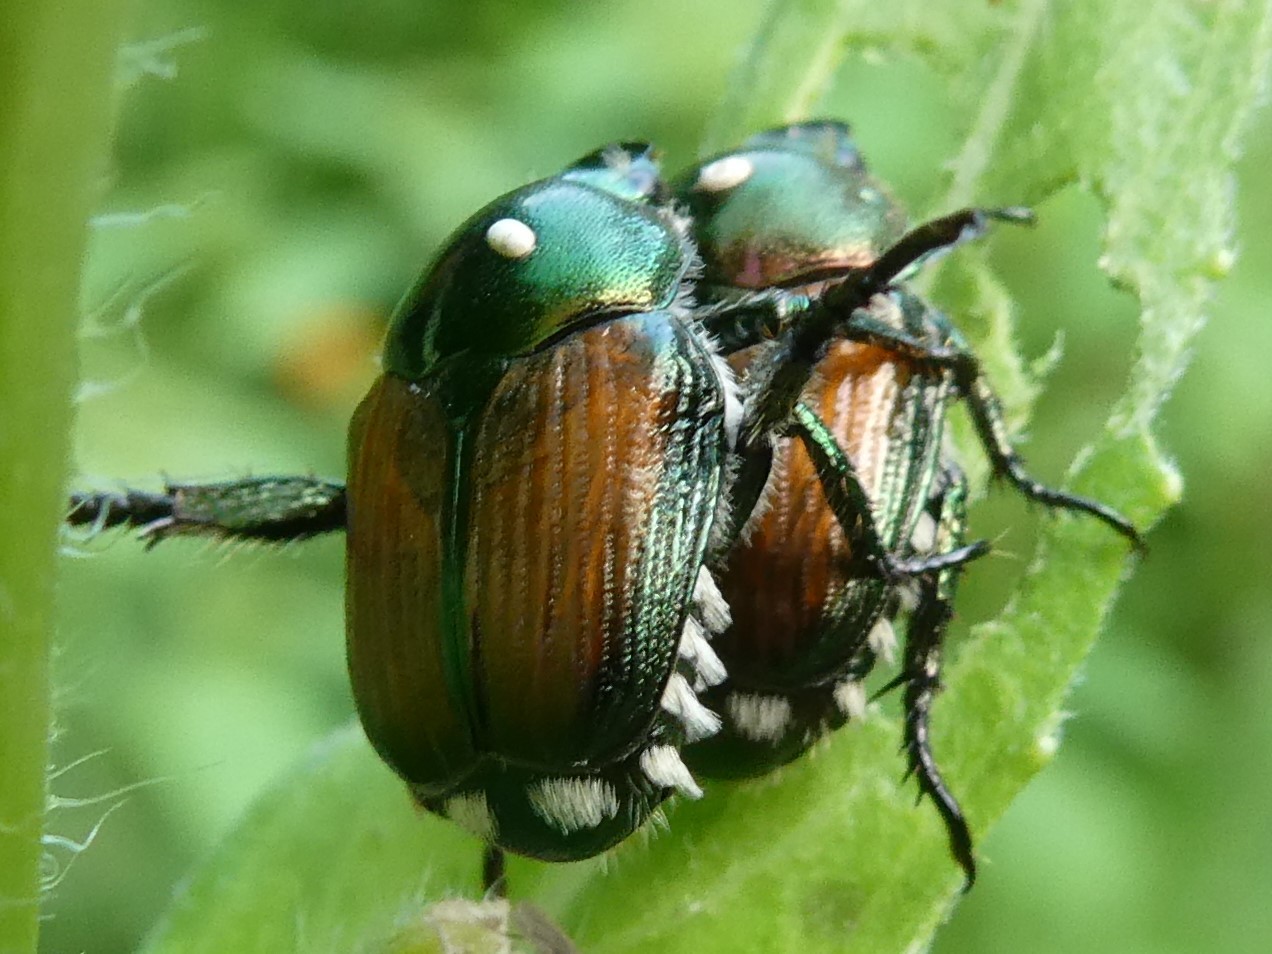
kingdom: Animalia
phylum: Arthropoda
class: Insecta
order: Diptera
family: Tachinidae
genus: Istocheta
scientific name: Istocheta aldrichi
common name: Parasitic wasp
